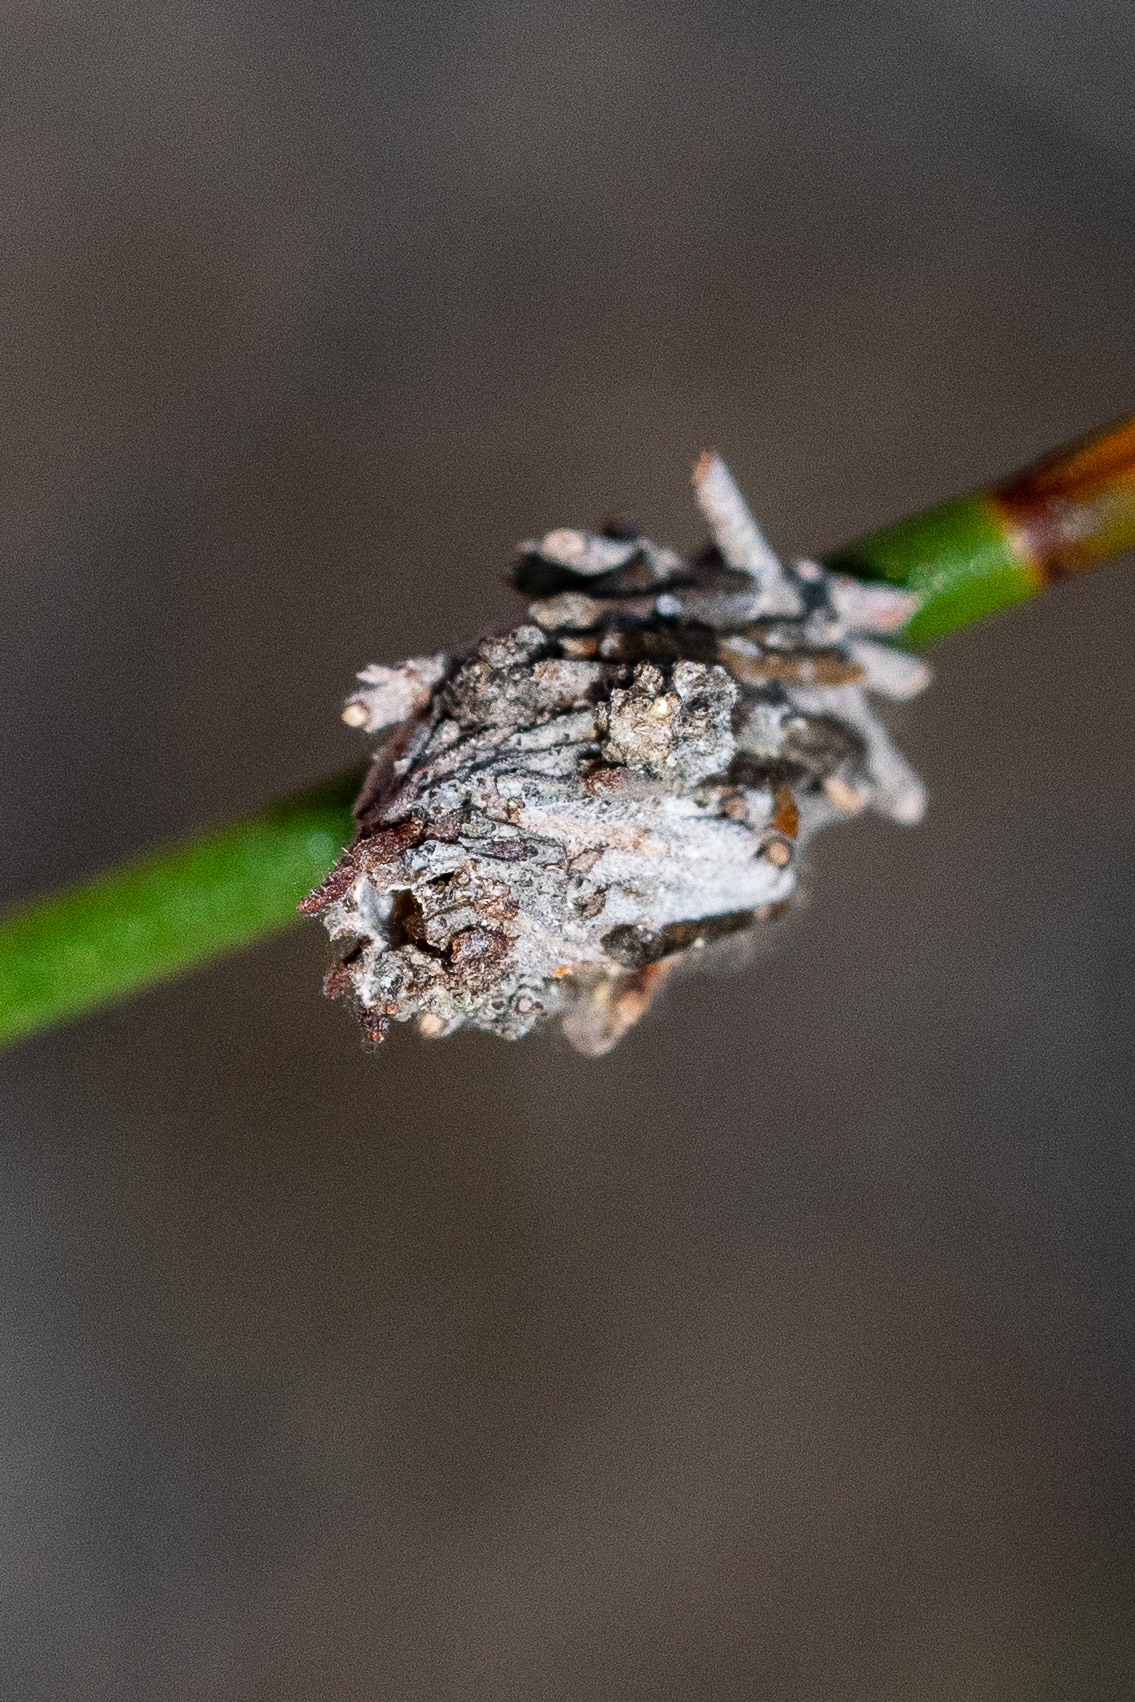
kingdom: Animalia
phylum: Arthropoda
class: Insecta
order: Lepidoptera
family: Psychidae
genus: Typhonia
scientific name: Typhonia picea
